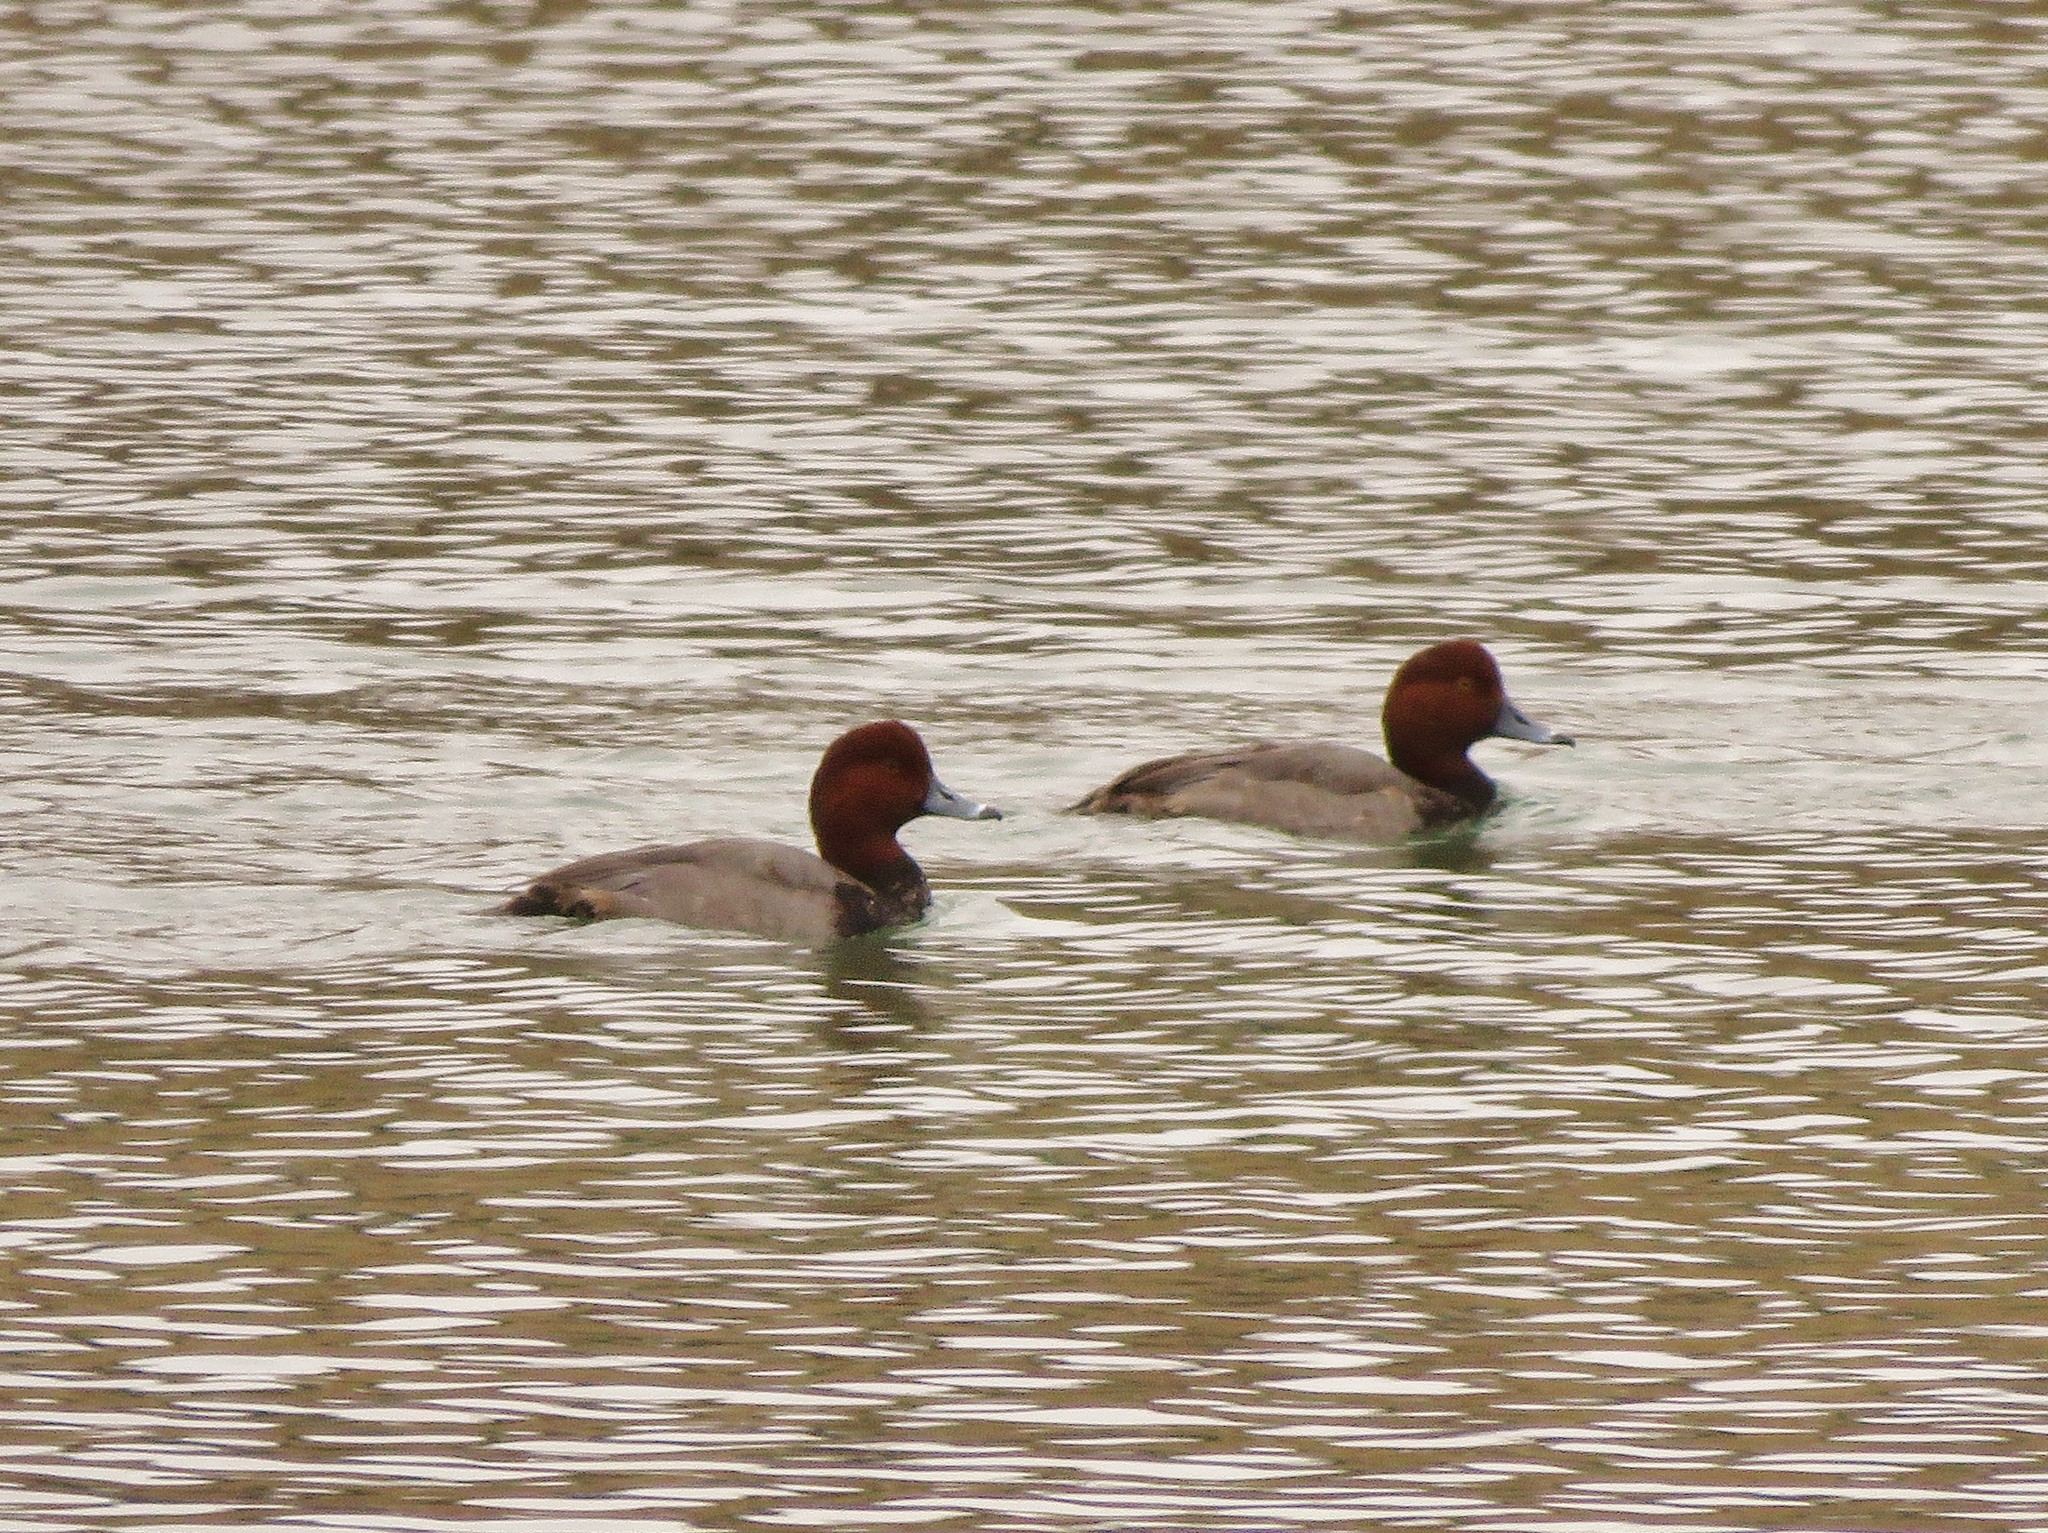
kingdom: Animalia
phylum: Chordata
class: Aves
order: Anseriformes
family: Anatidae
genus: Aythya
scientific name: Aythya americana
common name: Redhead
